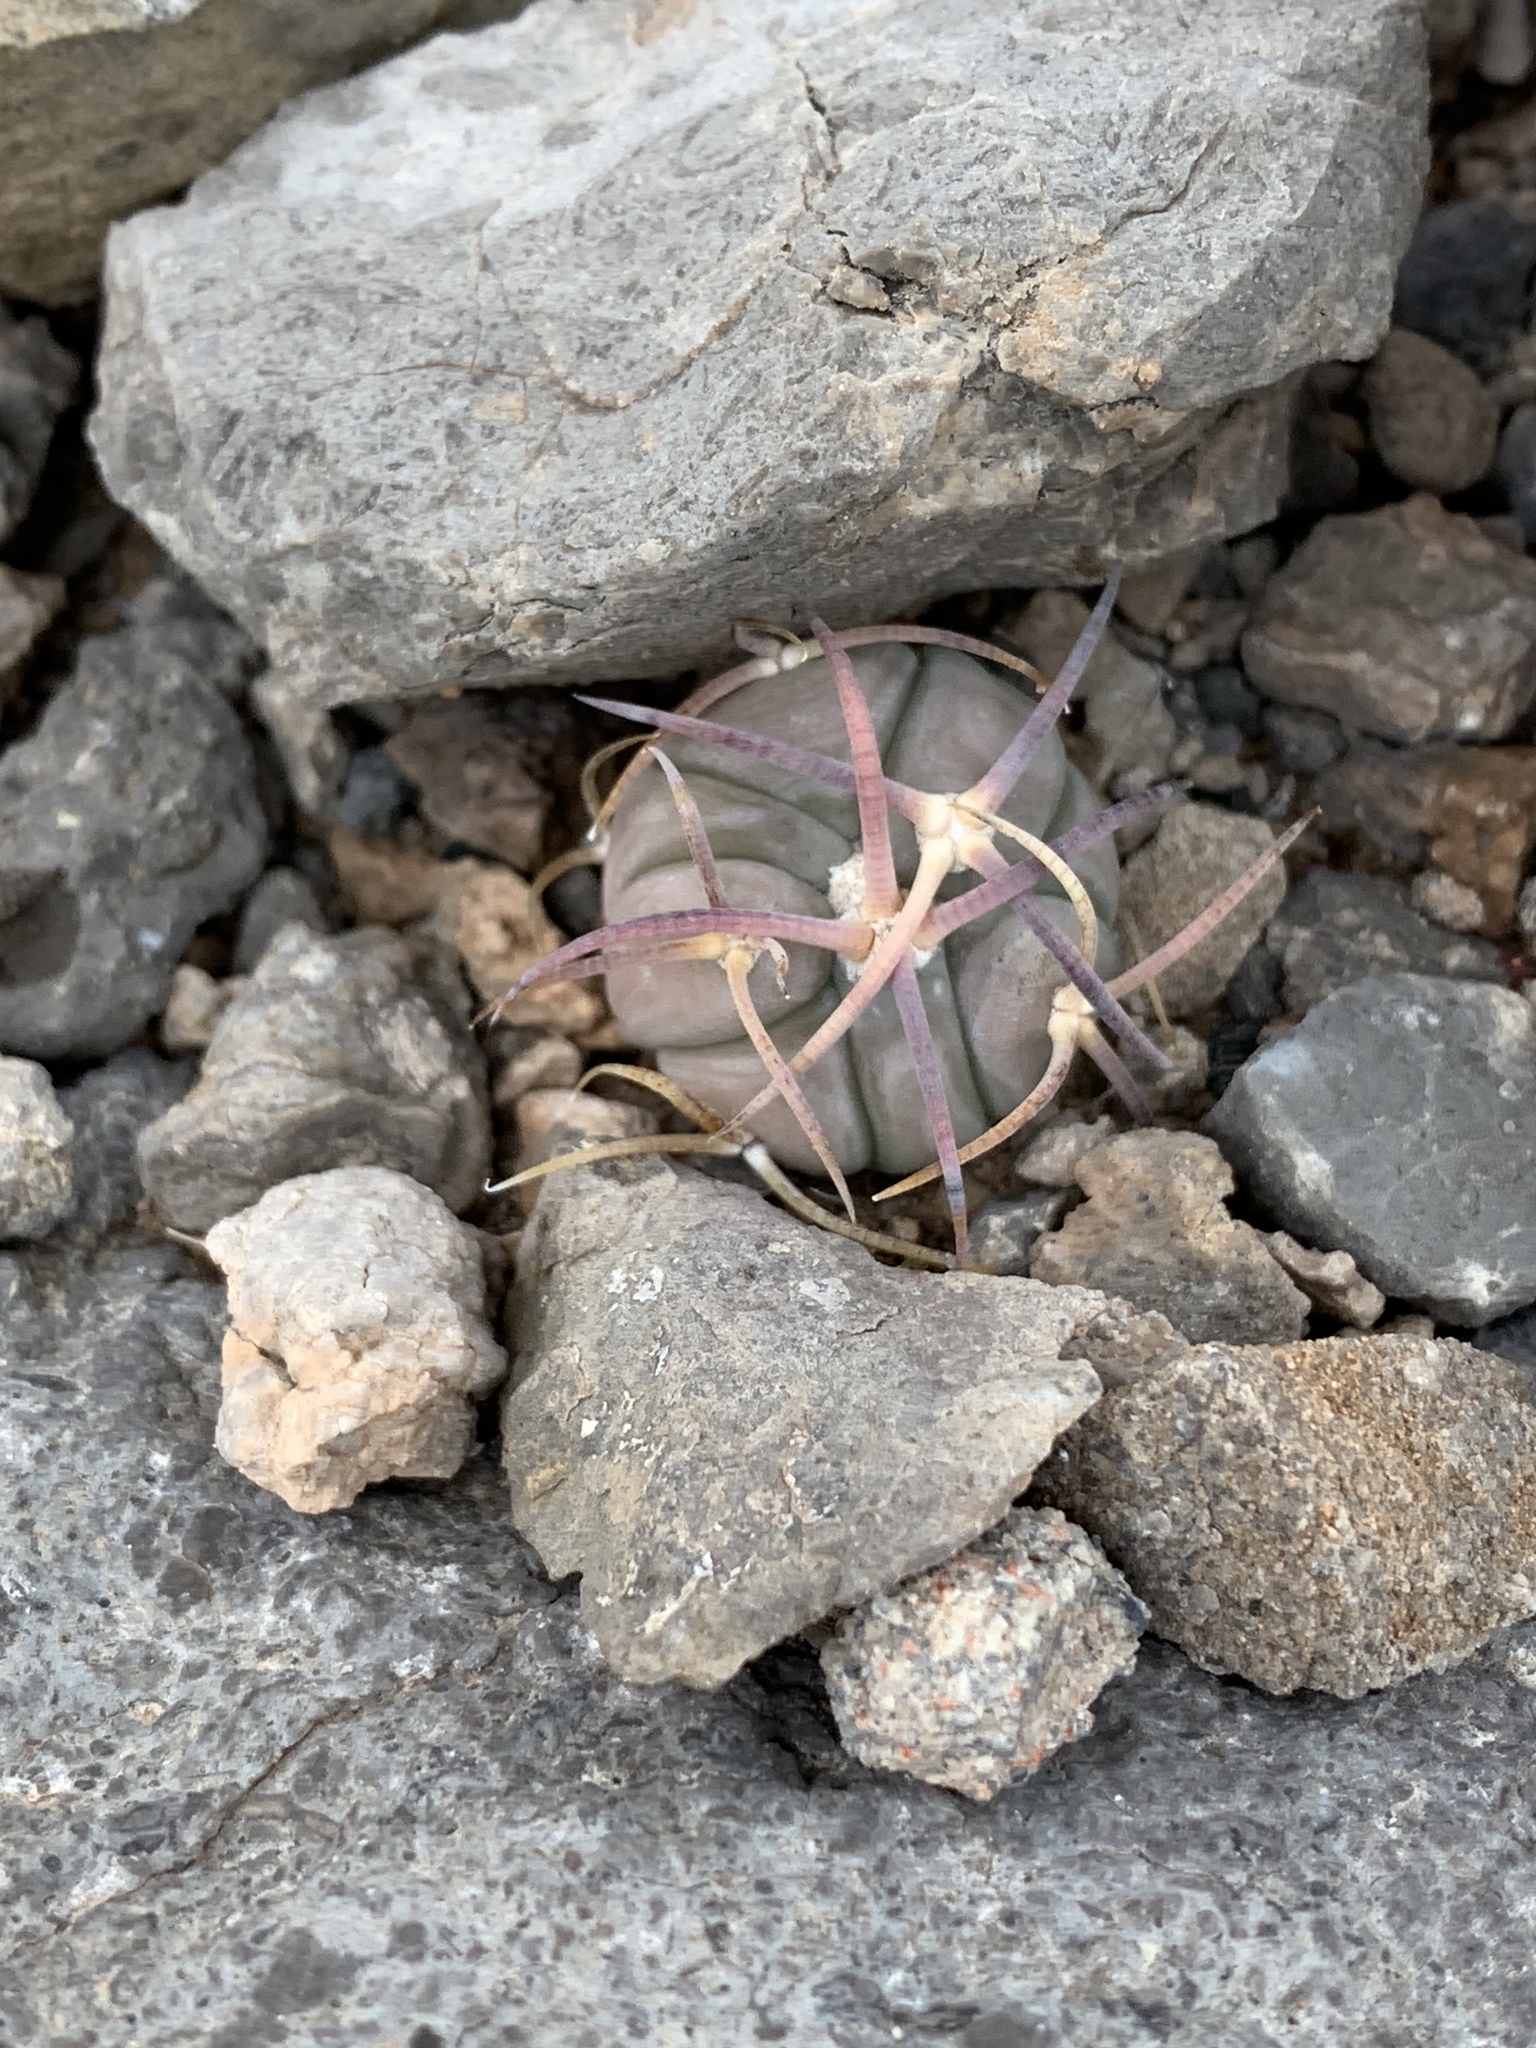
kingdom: Plantae
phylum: Tracheophyta
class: Magnoliopsida
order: Caryophyllales
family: Cactaceae
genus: Echinocactus
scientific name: Echinocactus horizonthalonius
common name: Devilshead
